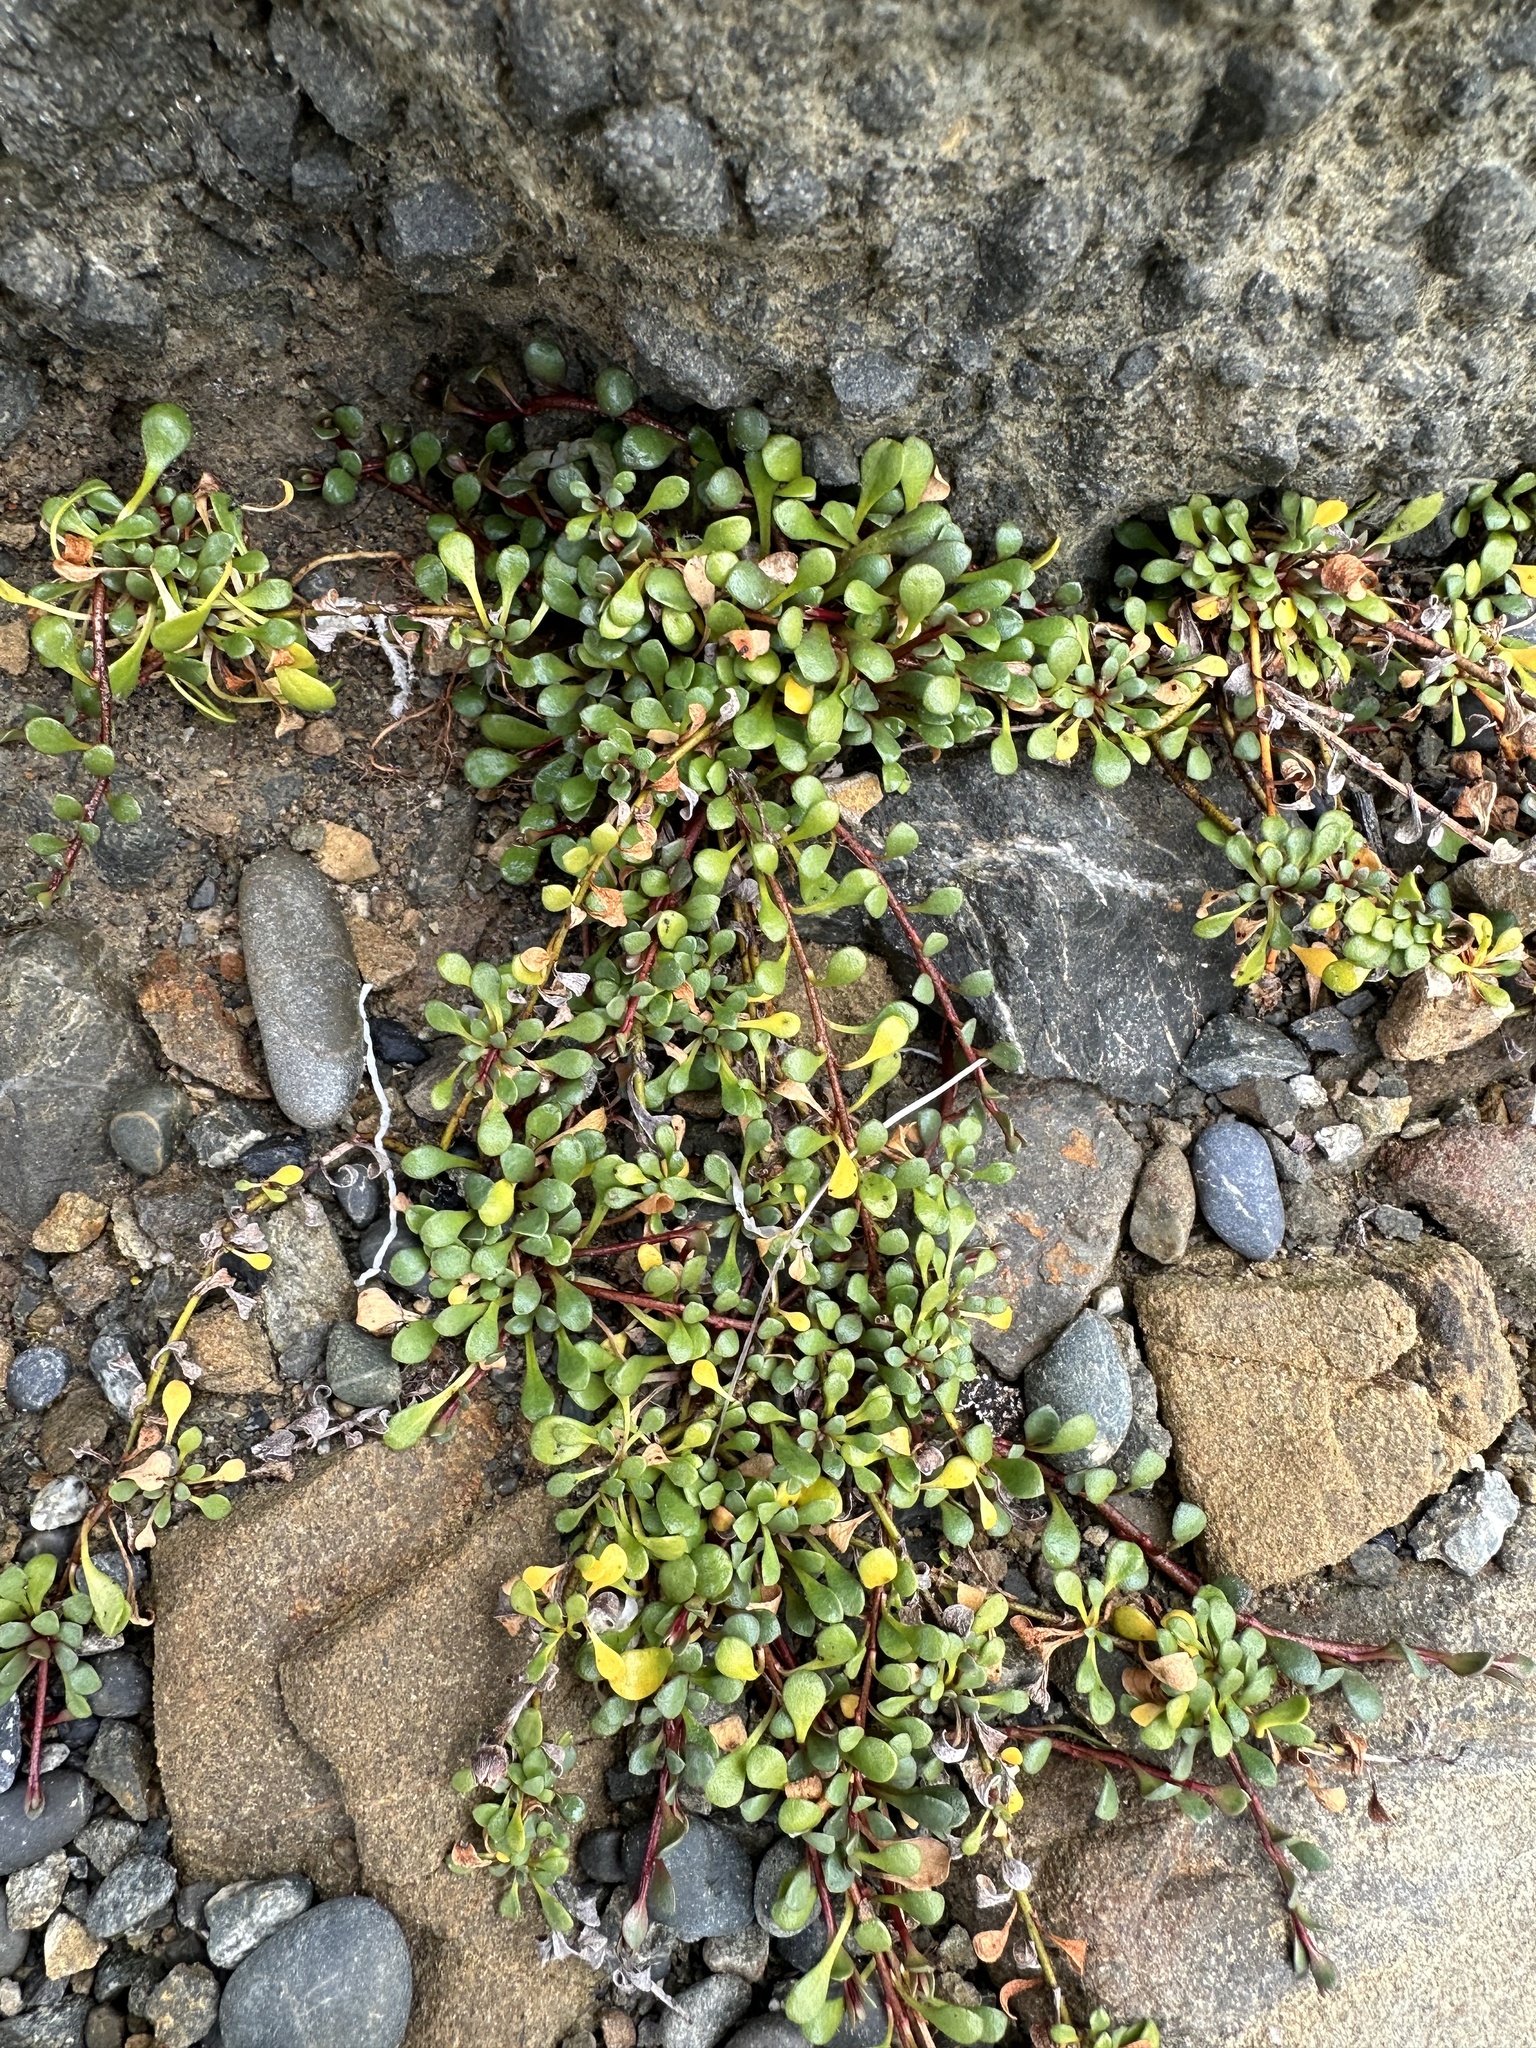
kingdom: Plantae
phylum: Tracheophyta
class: Magnoliopsida
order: Ericales
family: Primulaceae
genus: Samolus
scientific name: Samolus repens
